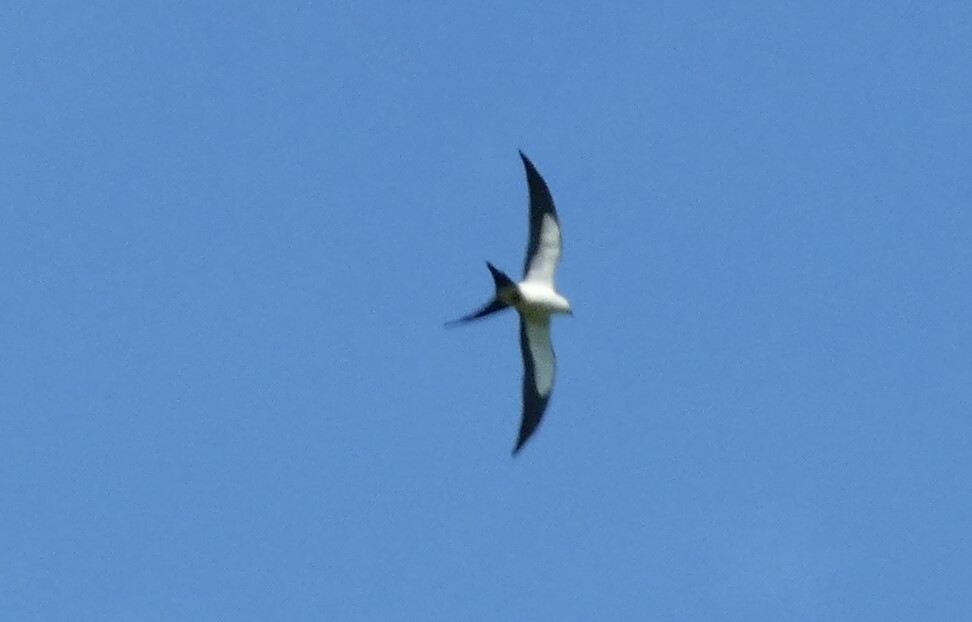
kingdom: Animalia
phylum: Chordata
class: Aves
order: Accipitriformes
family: Accipitridae
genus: Elanoides
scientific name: Elanoides forficatus
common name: Swallow-tailed kite
